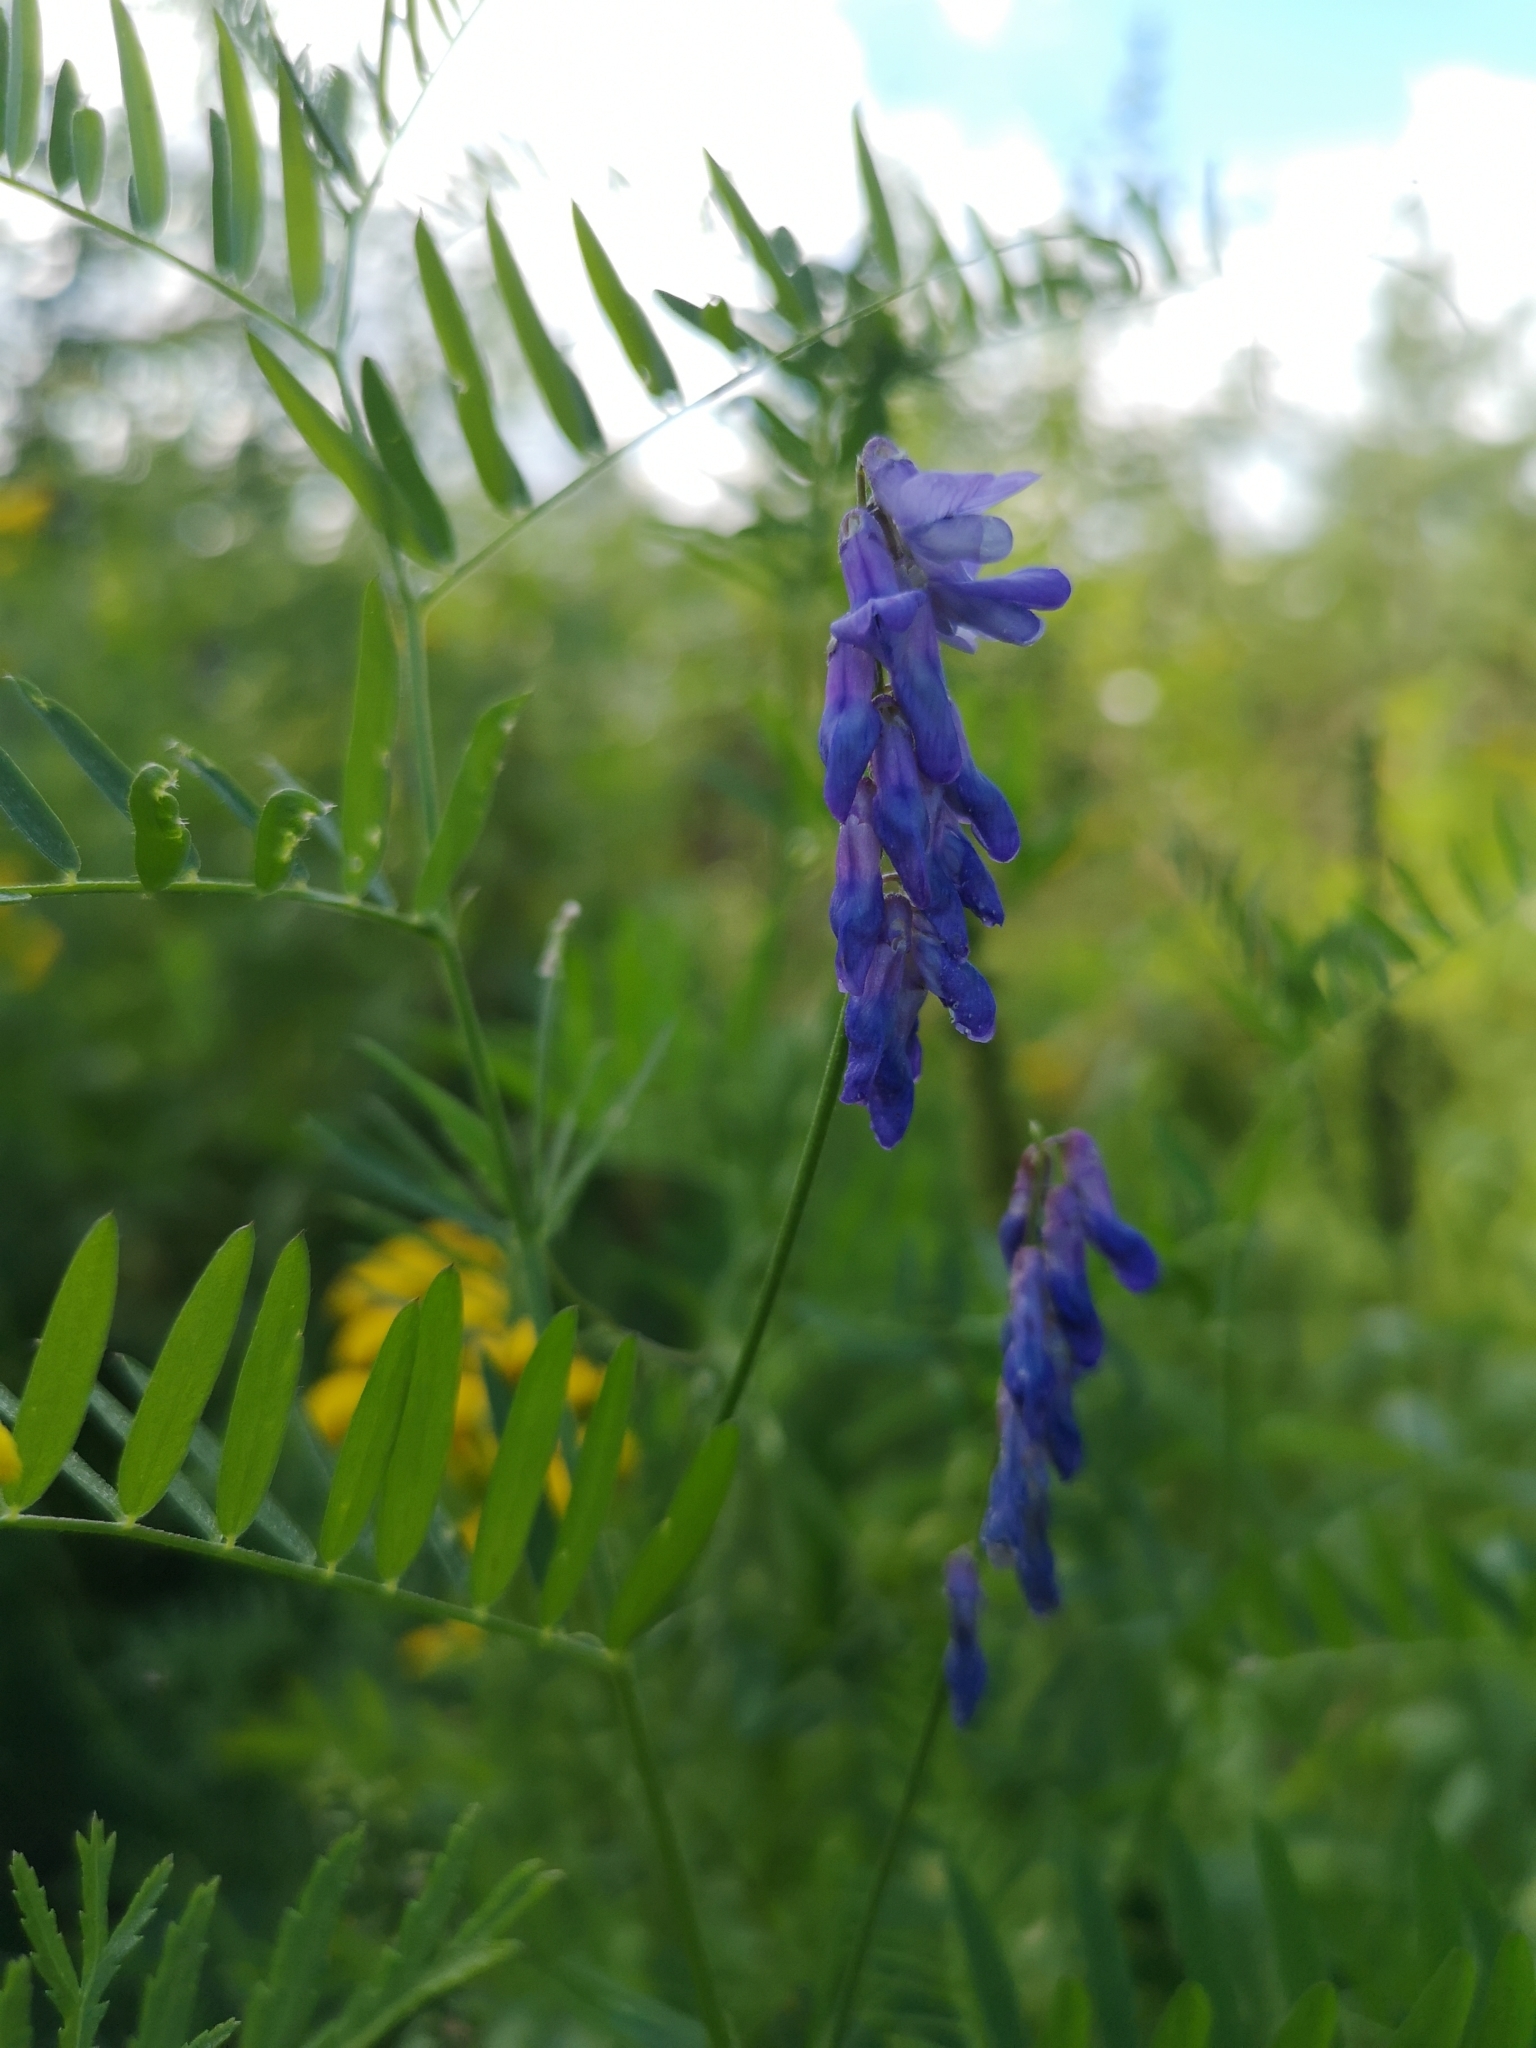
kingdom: Plantae
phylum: Tracheophyta
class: Magnoliopsida
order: Fabales
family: Fabaceae
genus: Vicia
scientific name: Vicia cracca
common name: Bird vetch
